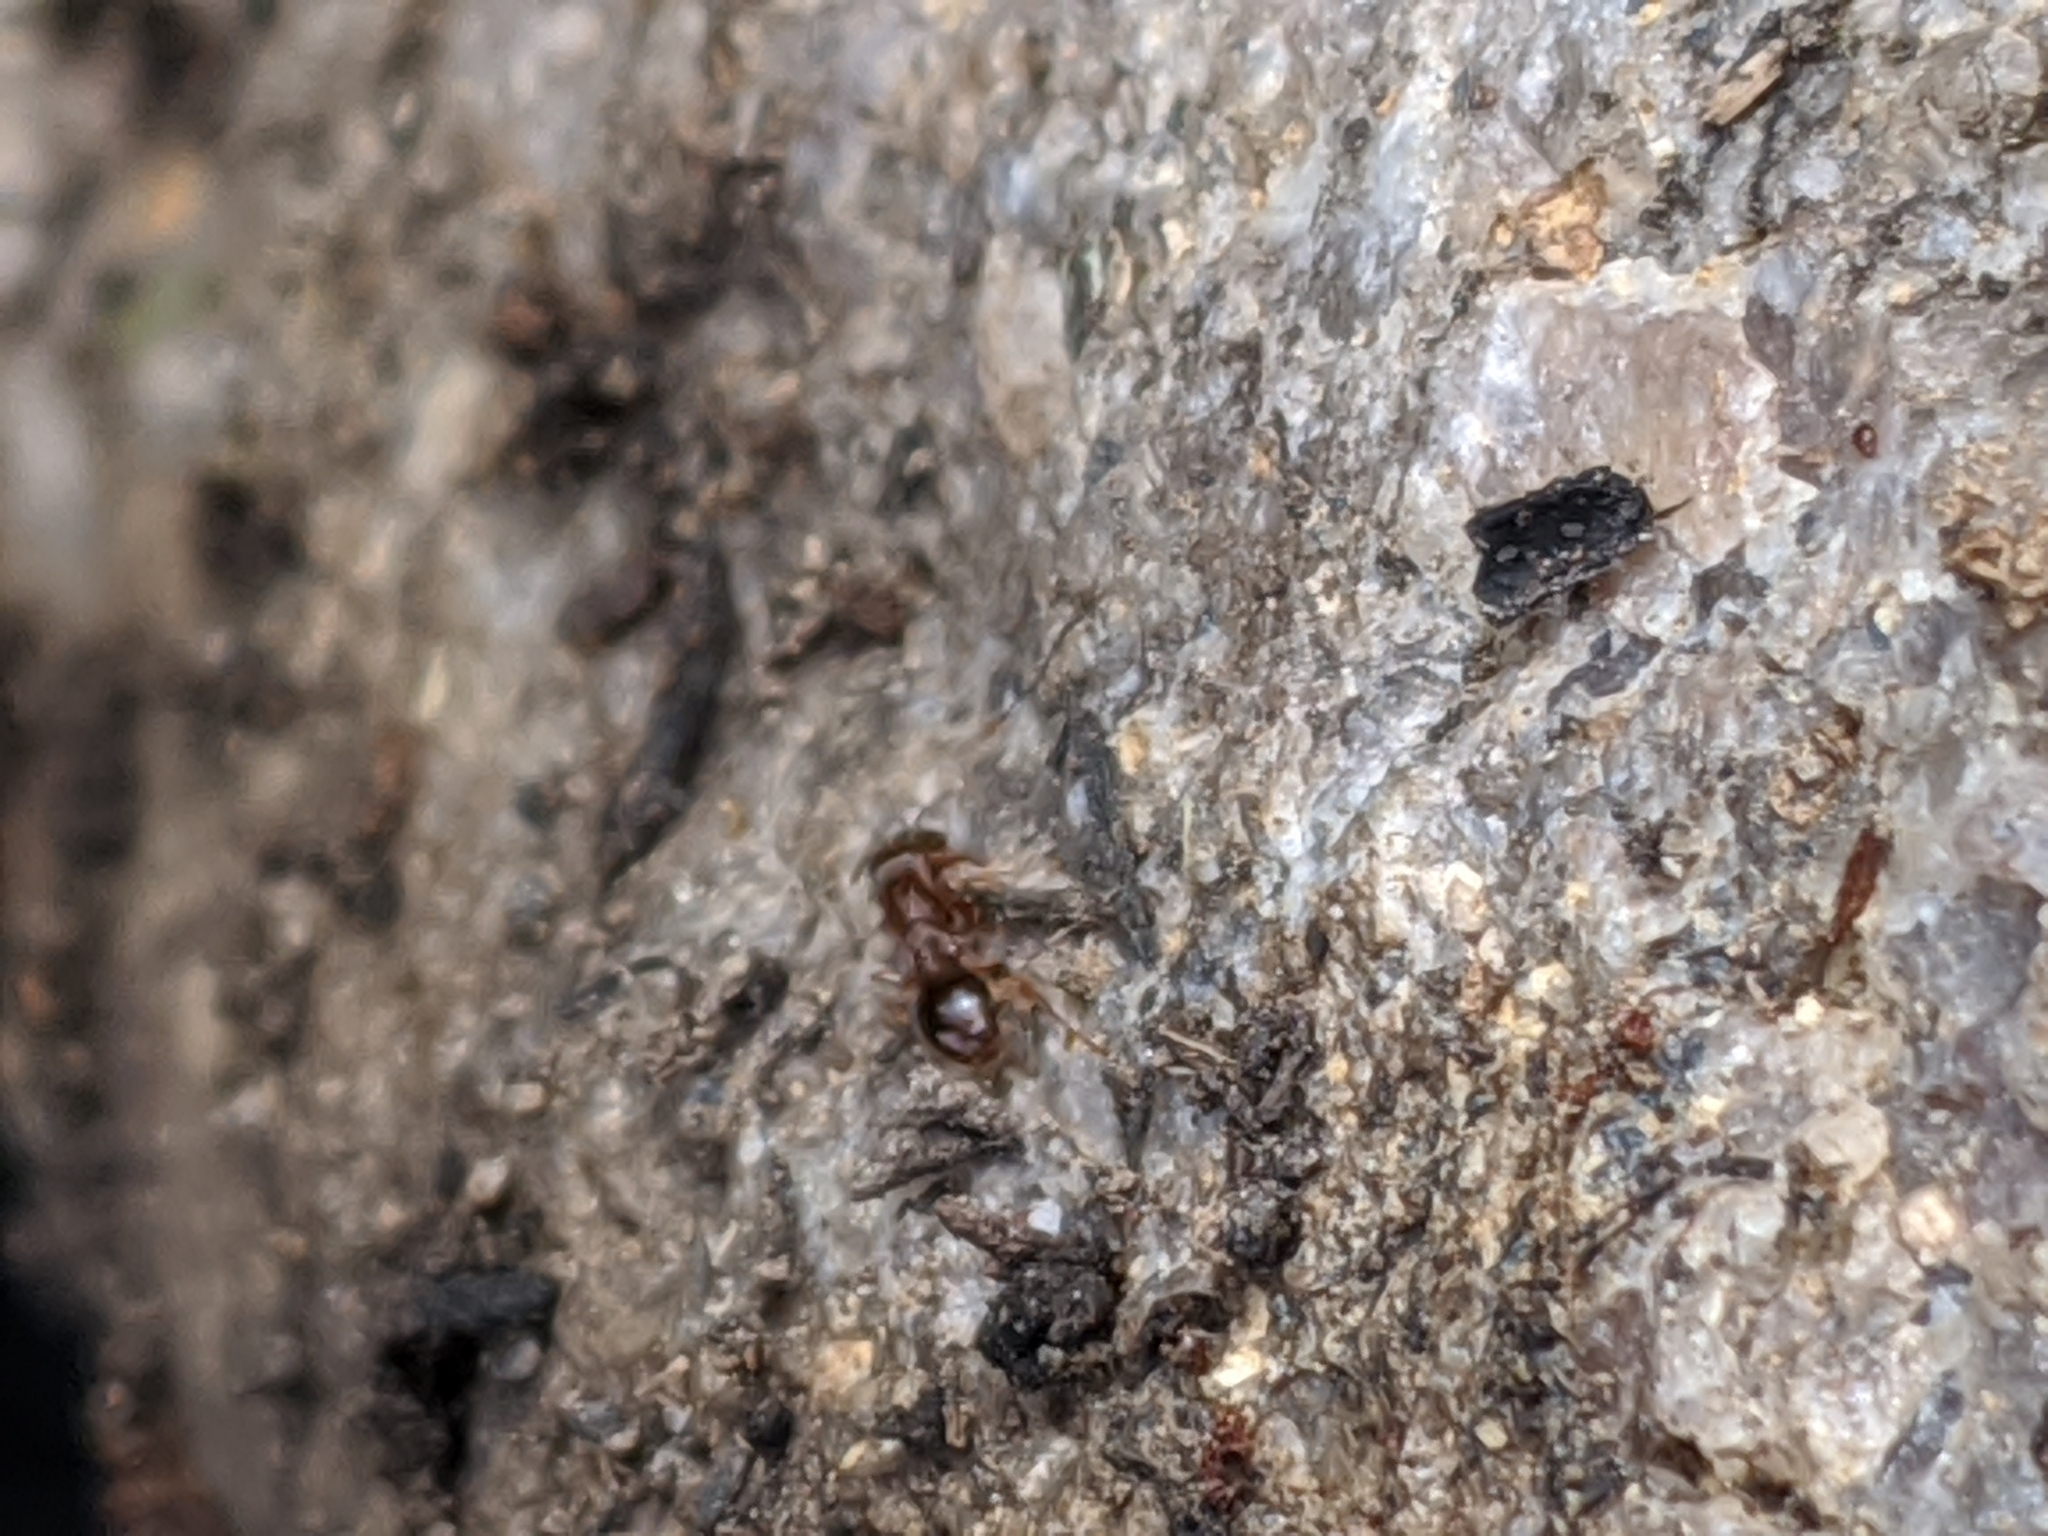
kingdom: Animalia
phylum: Arthropoda
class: Insecta
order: Hymenoptera
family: Formicidae
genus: Tetramorium
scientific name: Tetramorium immigrans
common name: Pavement ant
